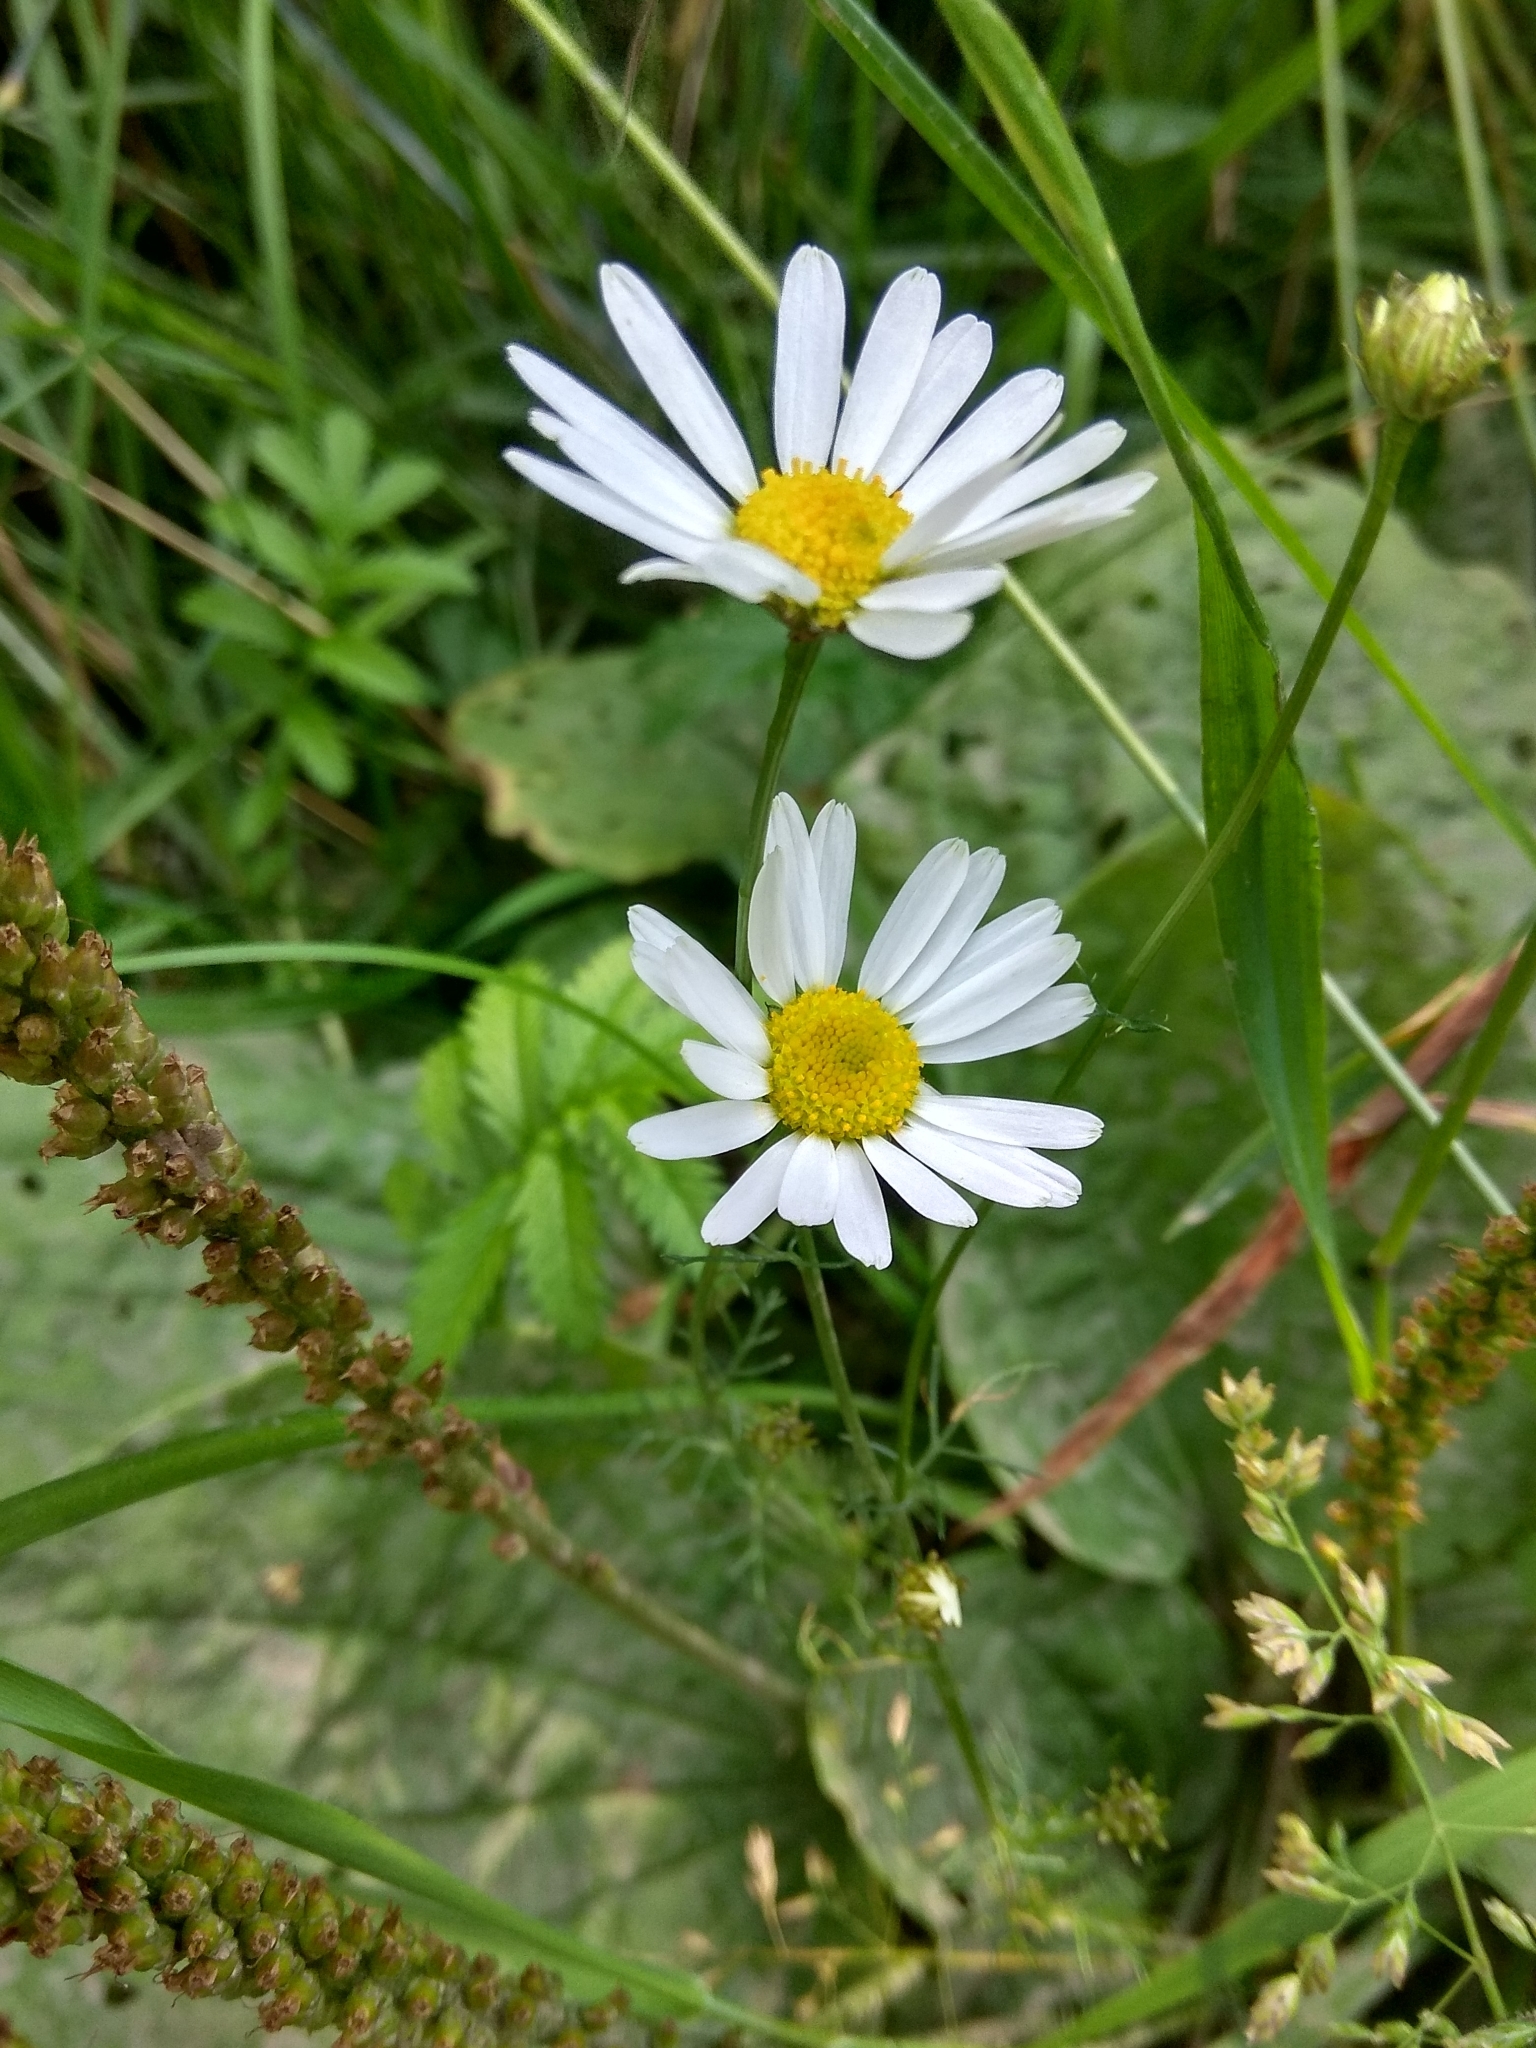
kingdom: Plantae
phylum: Tracheophyta
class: Magnoliopsida
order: Asterales
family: Asteraceae
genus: Tripleurospermum
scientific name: Tripleurospermum inodorum
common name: Scentless mayweed
